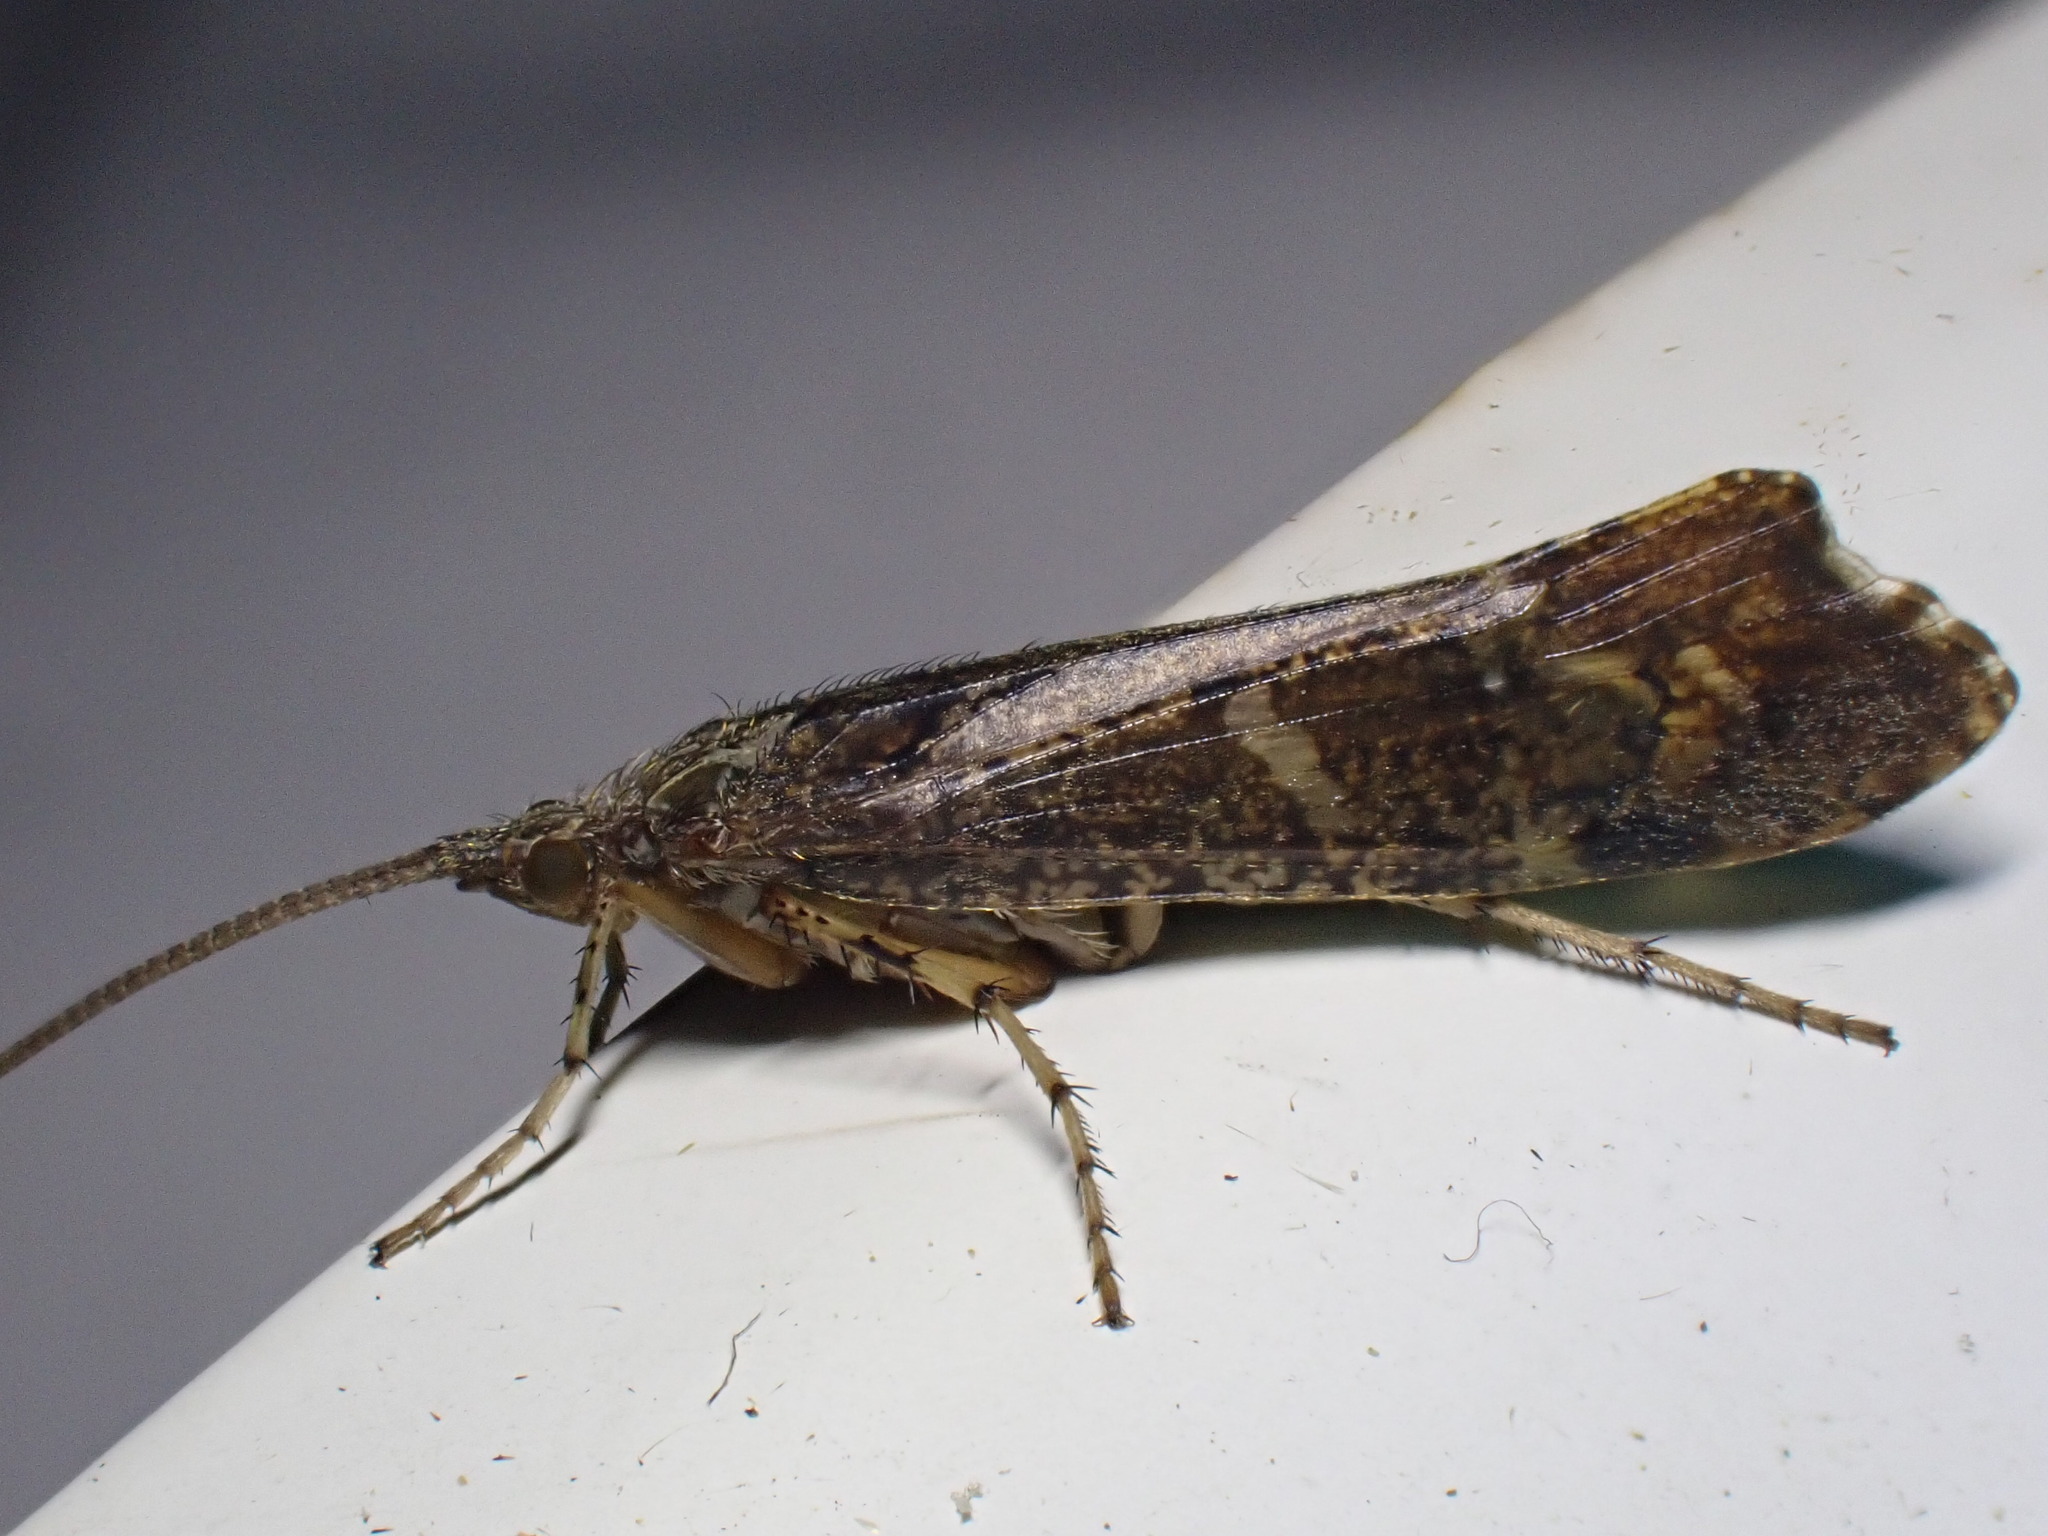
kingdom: Animalia
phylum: Arthropoda
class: Insecta
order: Trichoptera
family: Limnephilidae
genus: Glyphotaelius
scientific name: Glyphotaelius pellucidus
